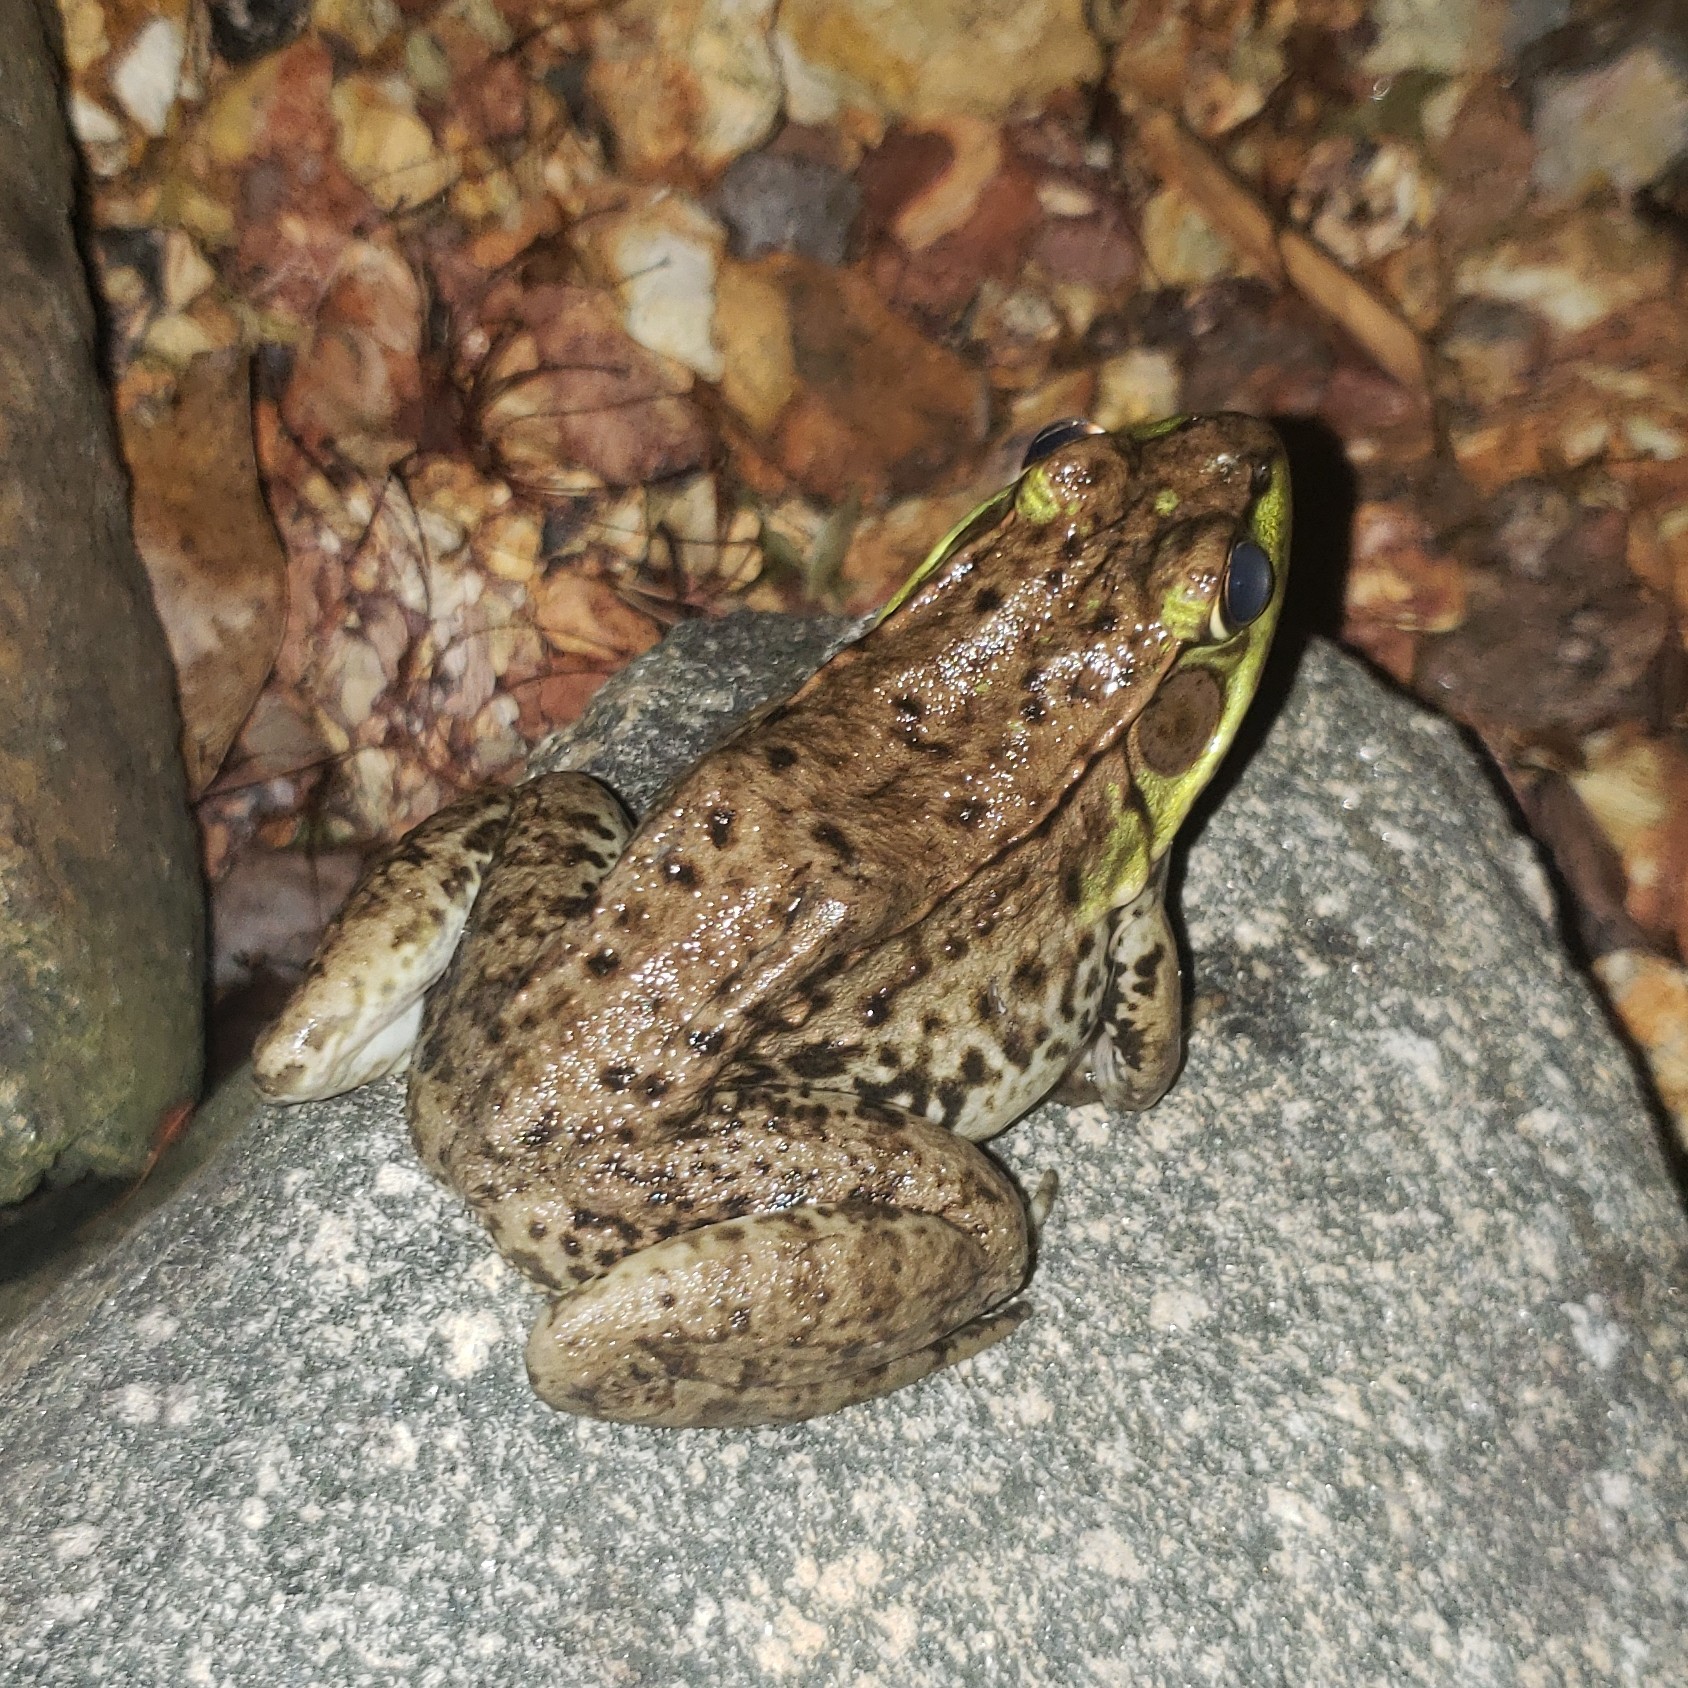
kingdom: Animalia
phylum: Chordata
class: Amphibia
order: Anura
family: Ranidae
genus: Lithobates
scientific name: Lithobates clamitans
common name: Green frog
